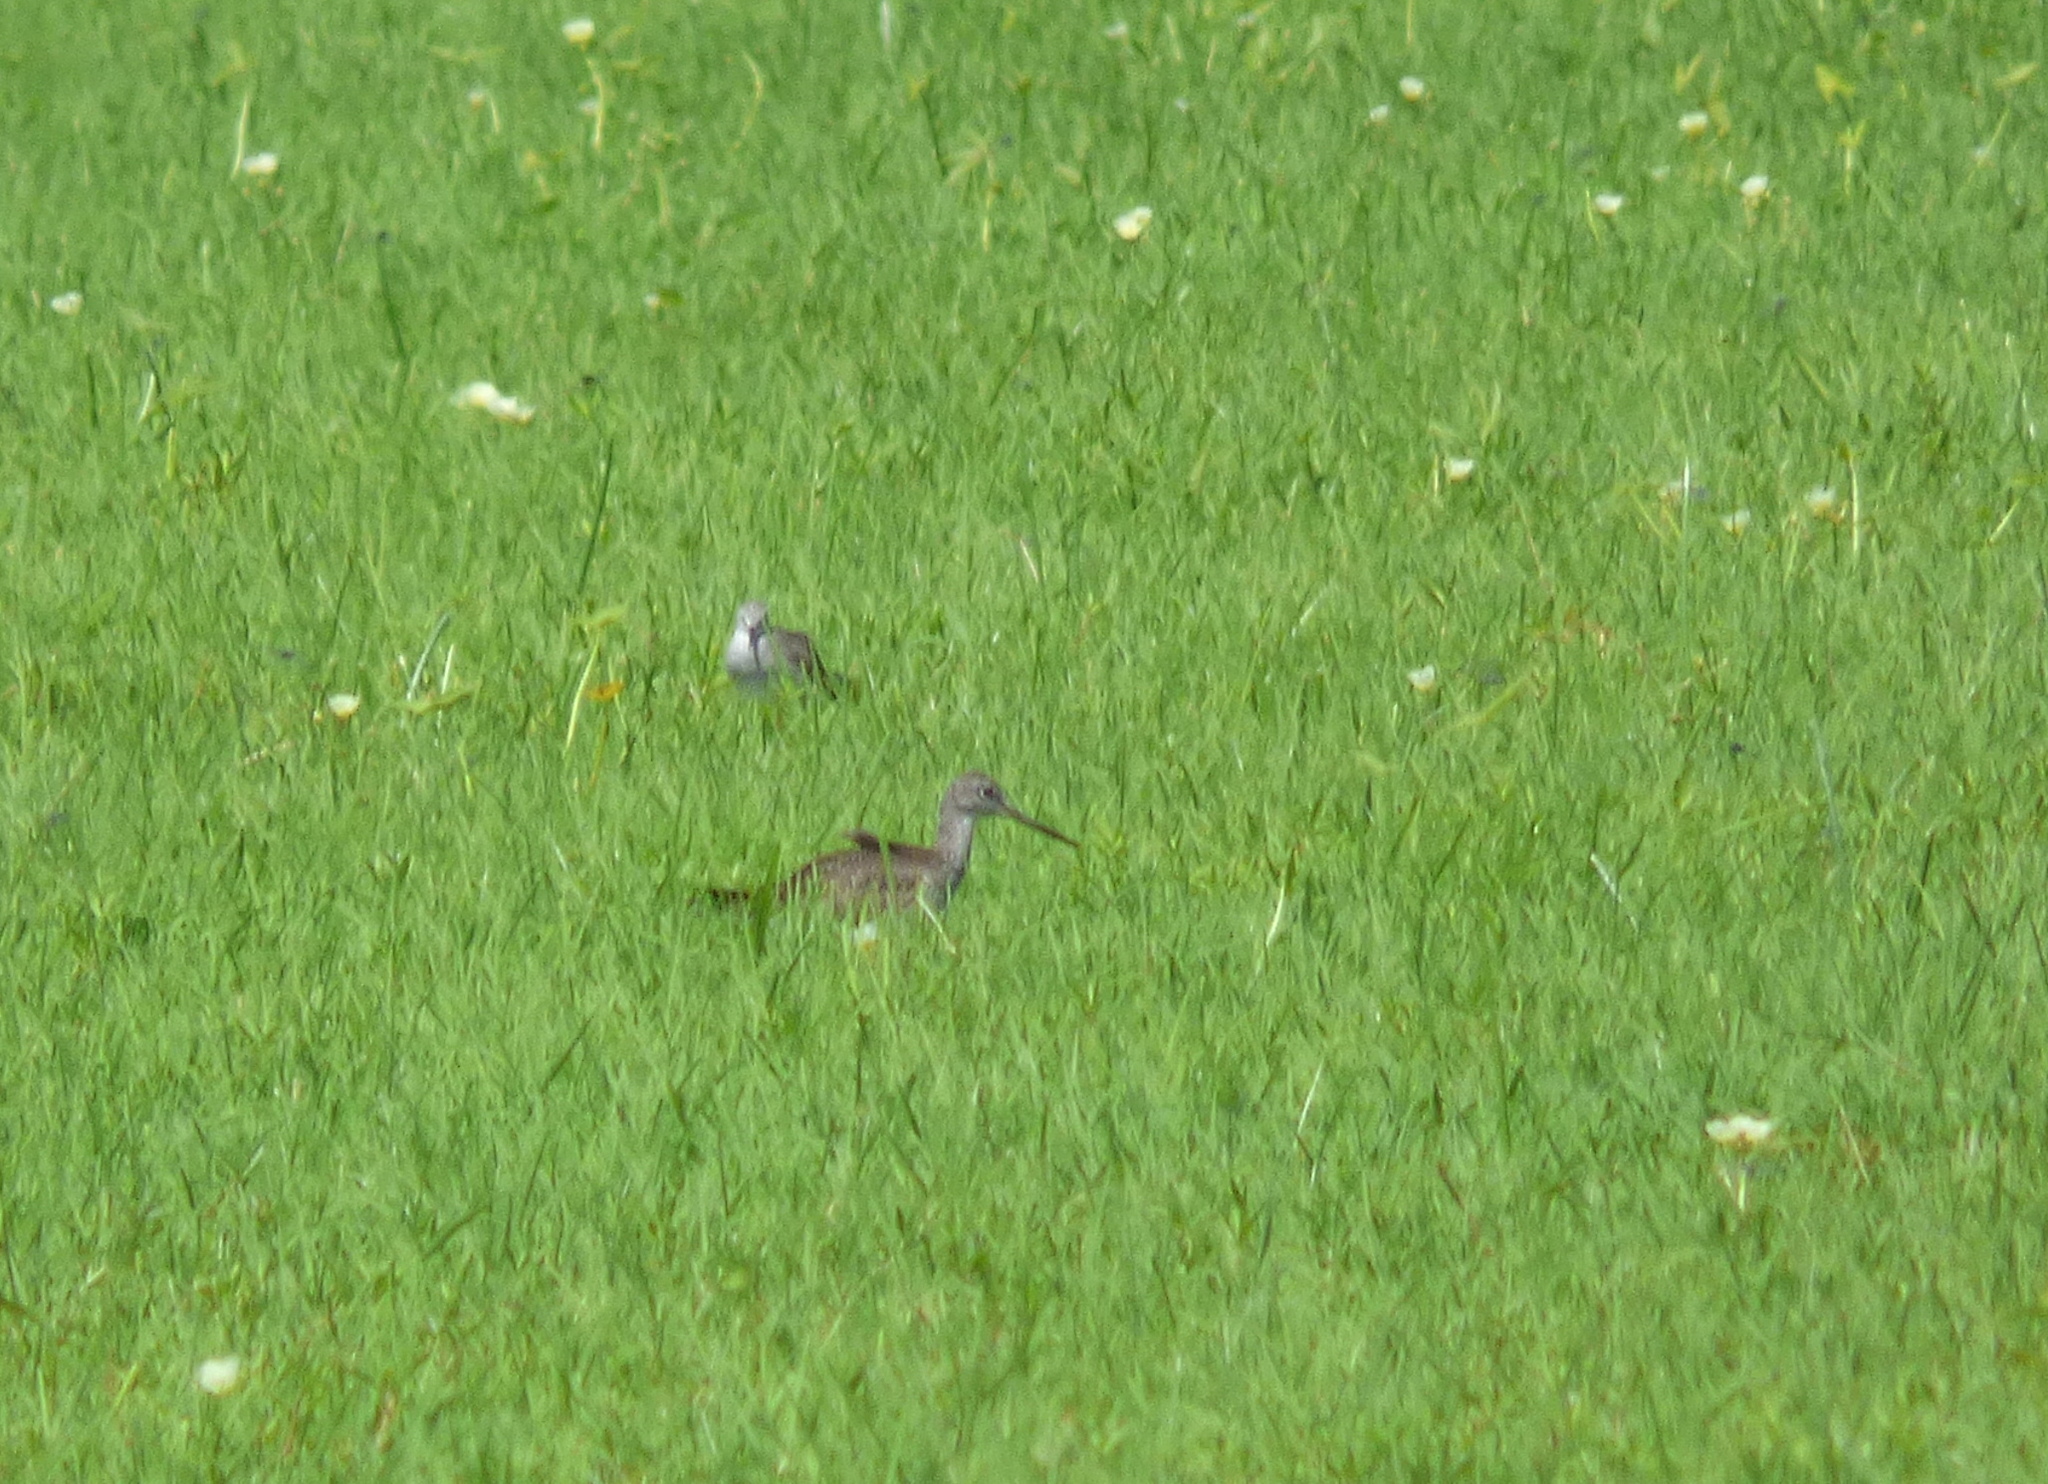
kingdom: Animalia
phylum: Chordata
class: Aves
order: Charadriiformes
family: Scolopacidae
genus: Tringa
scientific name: Tringa melanoleuca
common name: Greater yellowlegs
